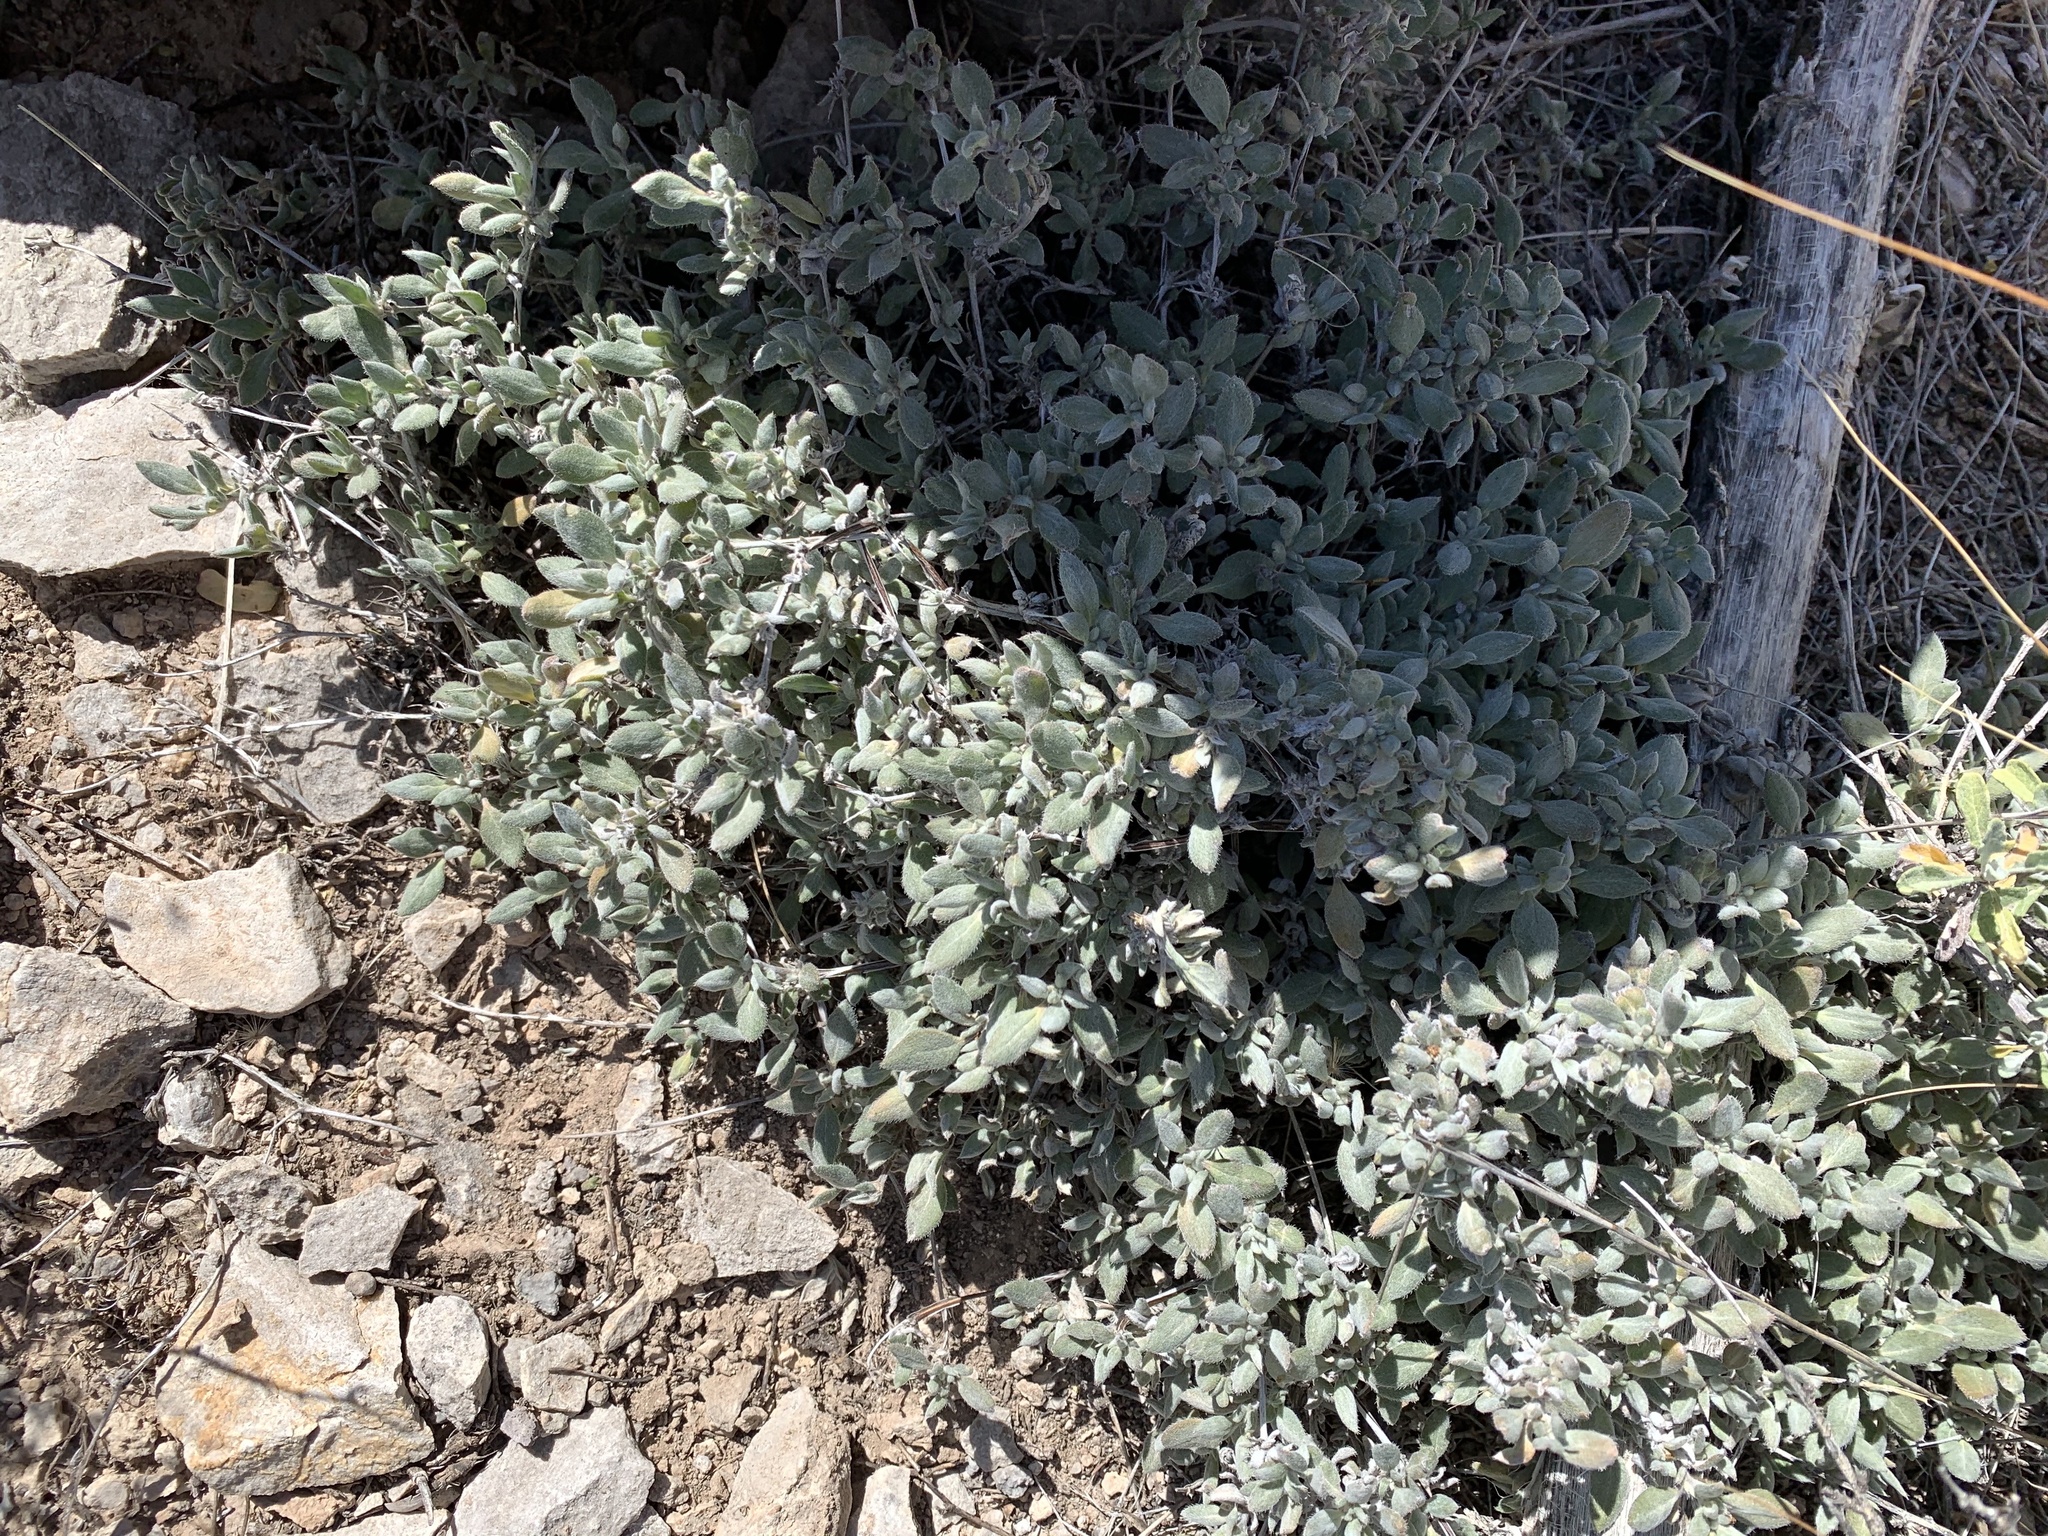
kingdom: Plantae
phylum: Tracheophyta
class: Magnoliopsida
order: Boraginales
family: Ehretiaceae
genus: Tiquilia
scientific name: Tiquilia canescens
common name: Hairy tiquilia
